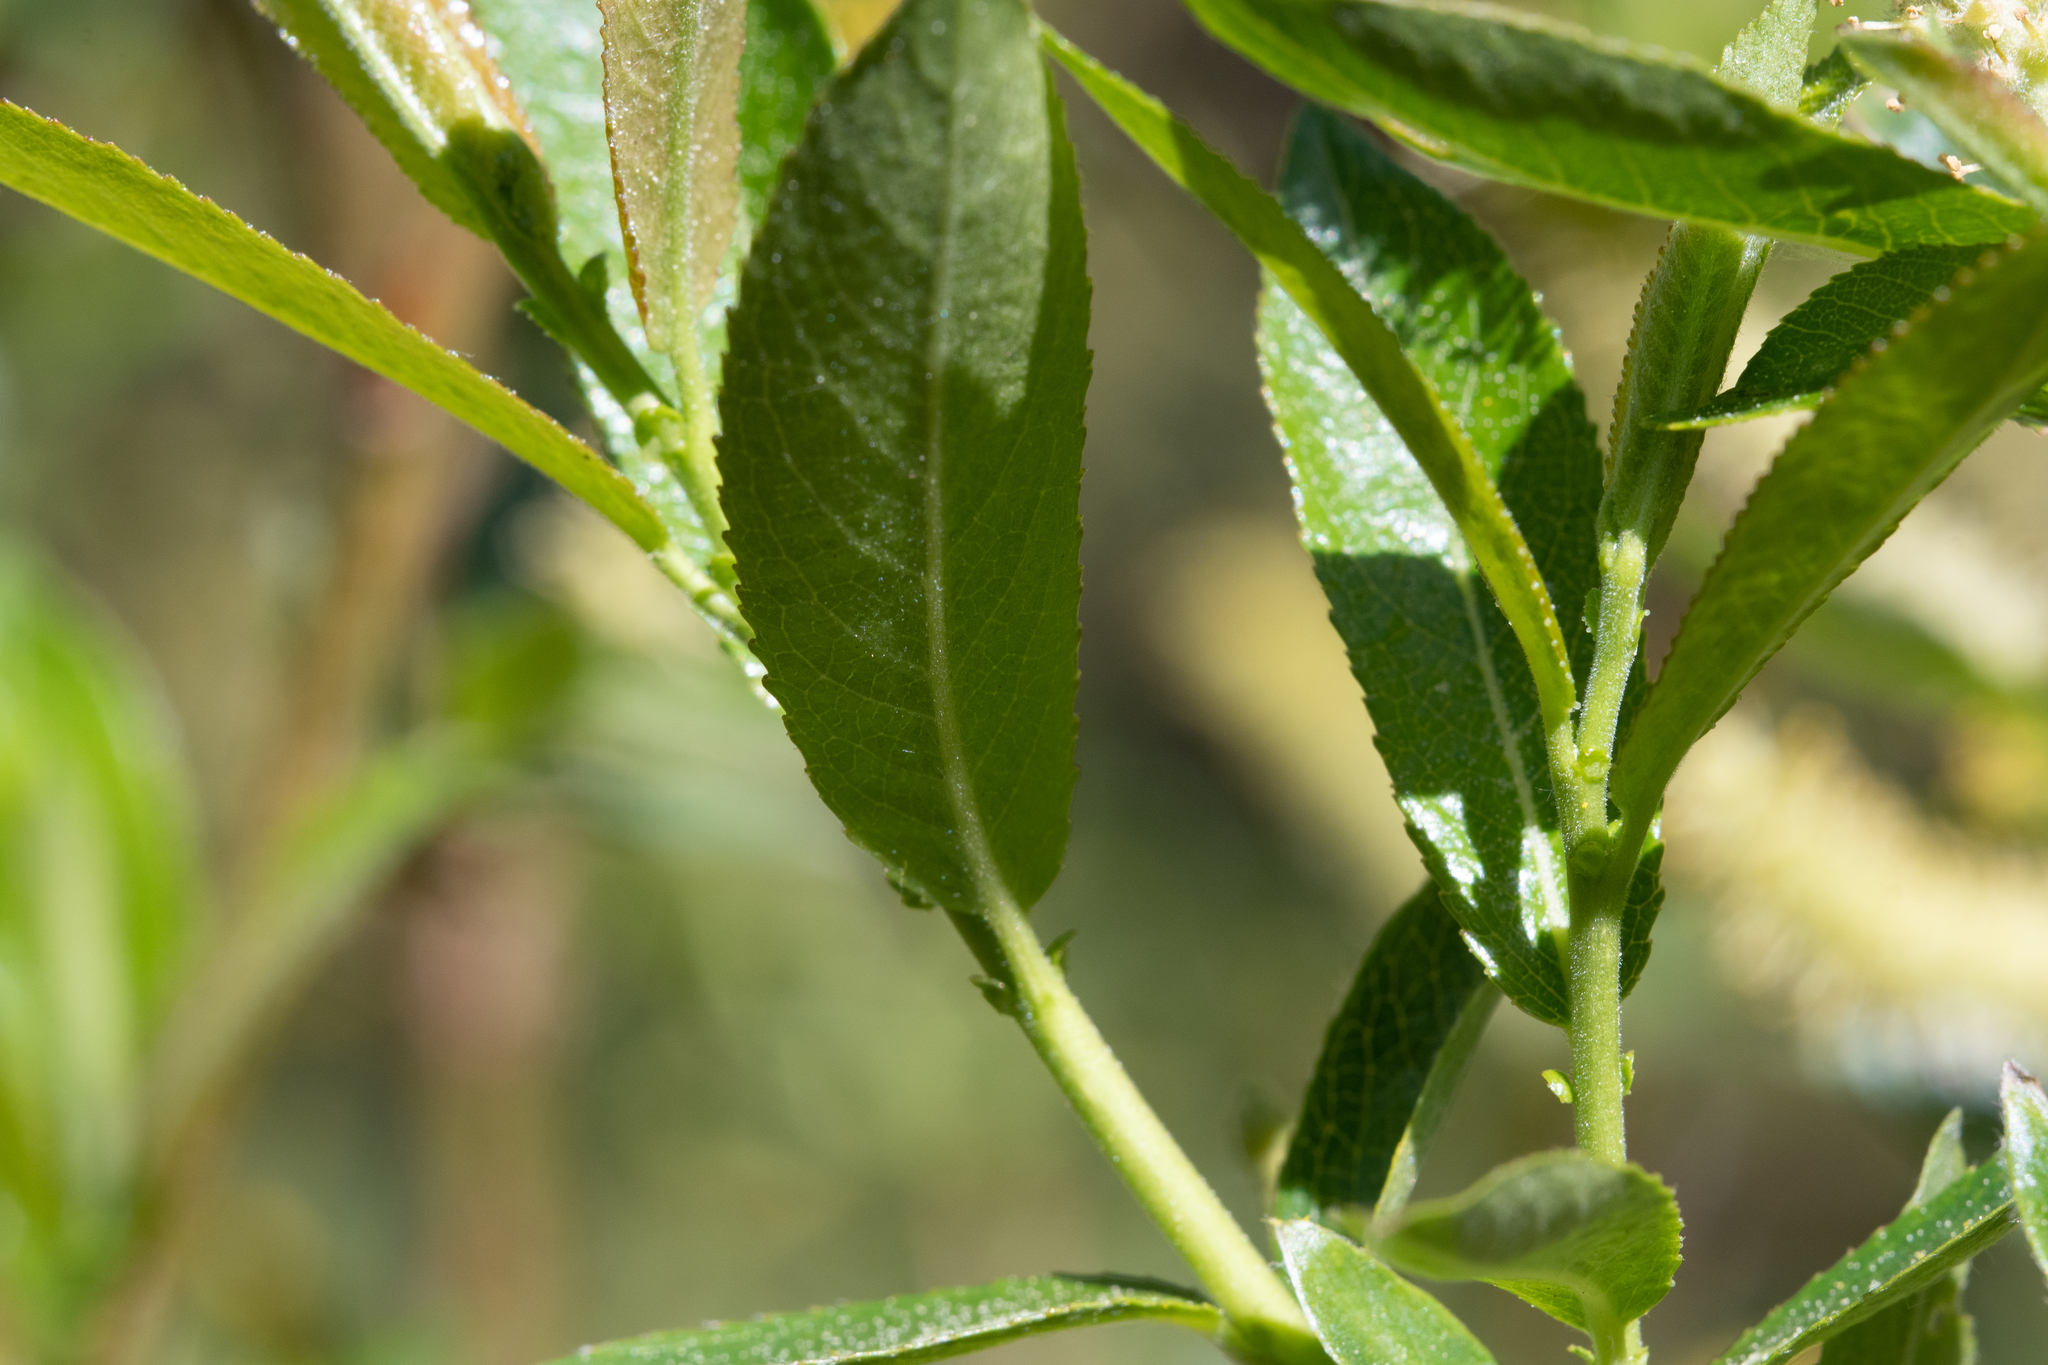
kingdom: Plantae
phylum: Tracheophyta
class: Magnoliopsida
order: Malpighiales
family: Salicaceae
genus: Salix
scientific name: Salix triandra
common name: Almond willow
